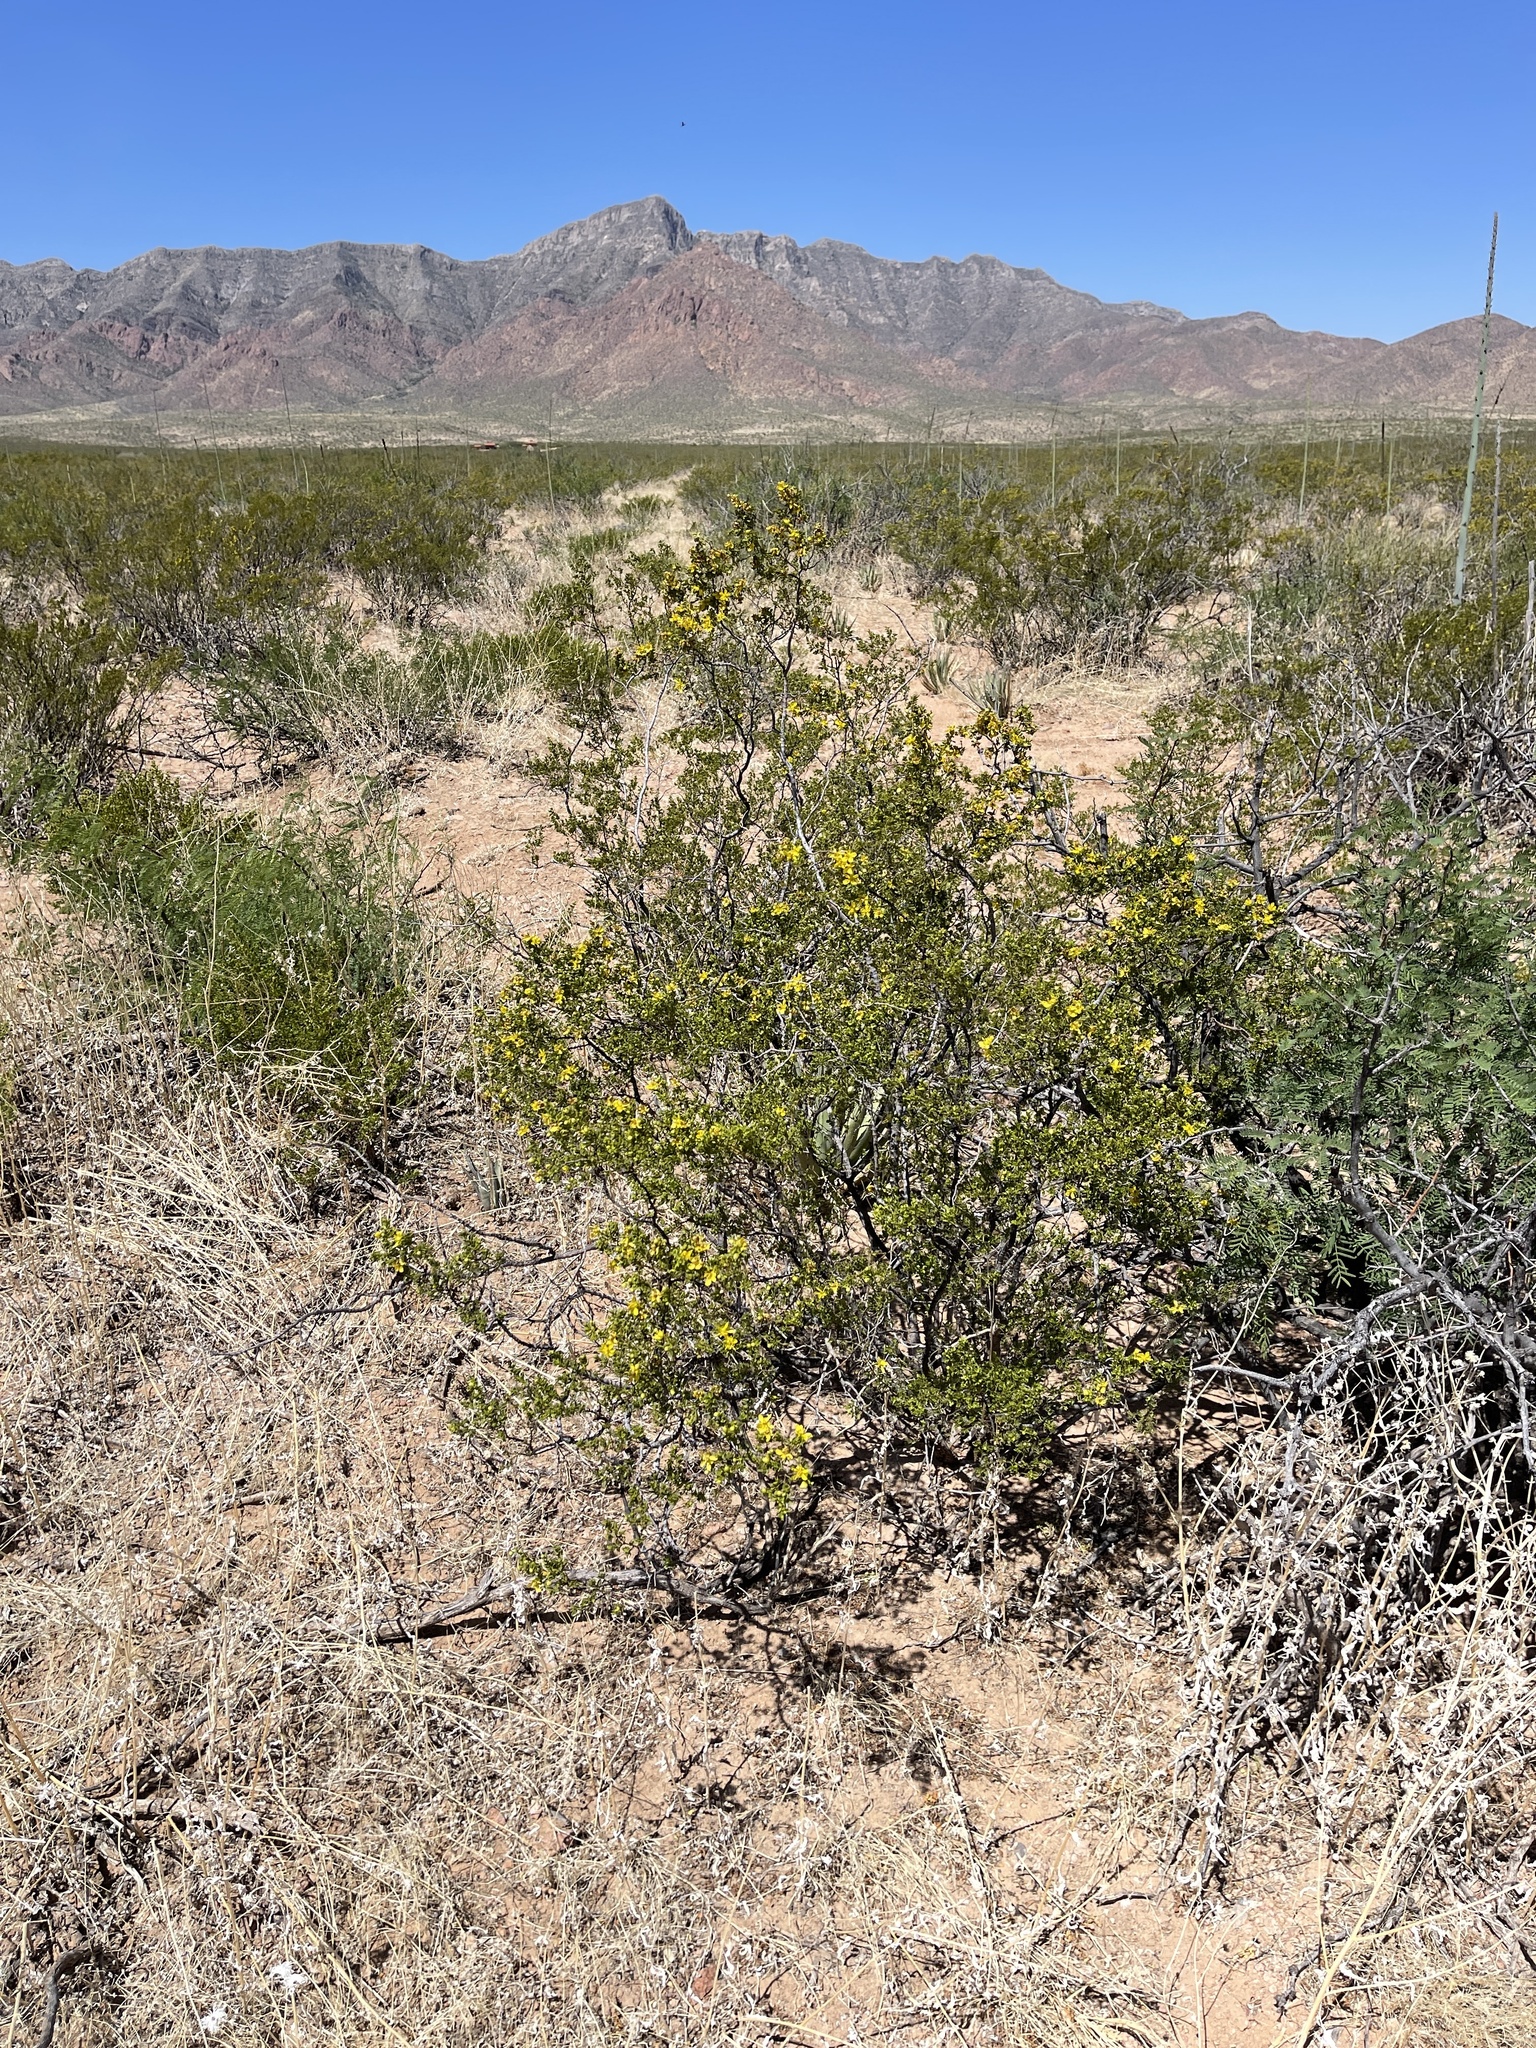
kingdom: Plantae
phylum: Tracheophyta
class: Magnoliopsida
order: Zygophyllales
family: Zygophyllaceae
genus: Larrea
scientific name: Larrea tridentata
